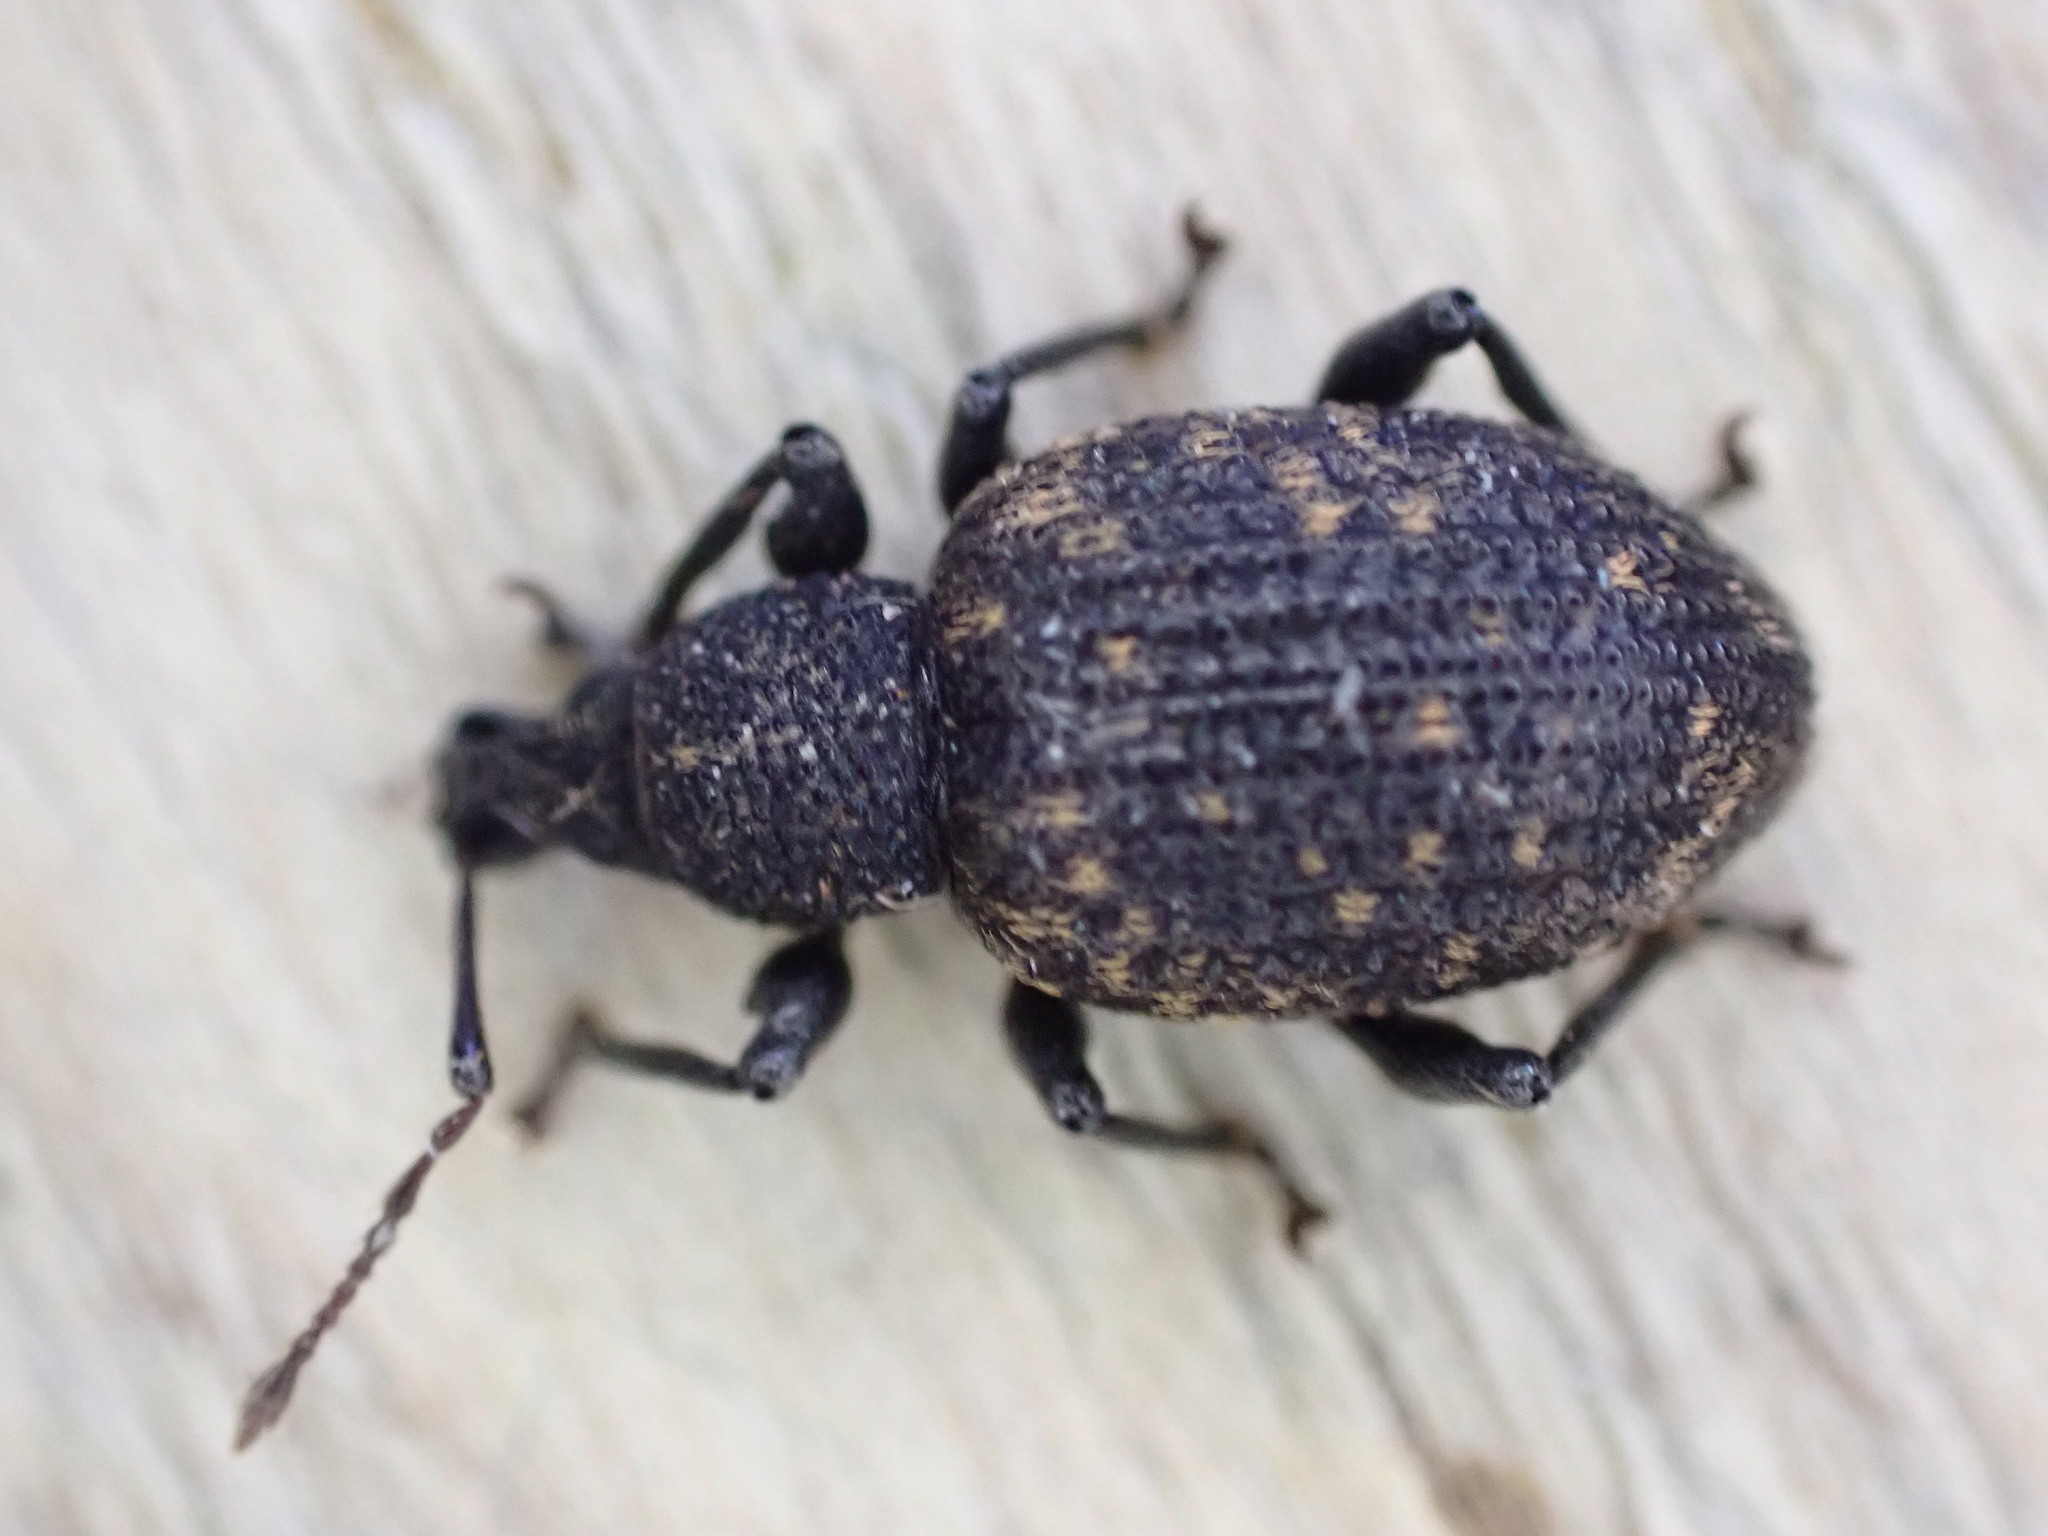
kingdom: Animalia
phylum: Arthropoda
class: Insecta
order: Coleoptera
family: Curculionidae
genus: Otiorhynchus
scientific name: Otiorhynchus sulcatus
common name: Black vine weevil
